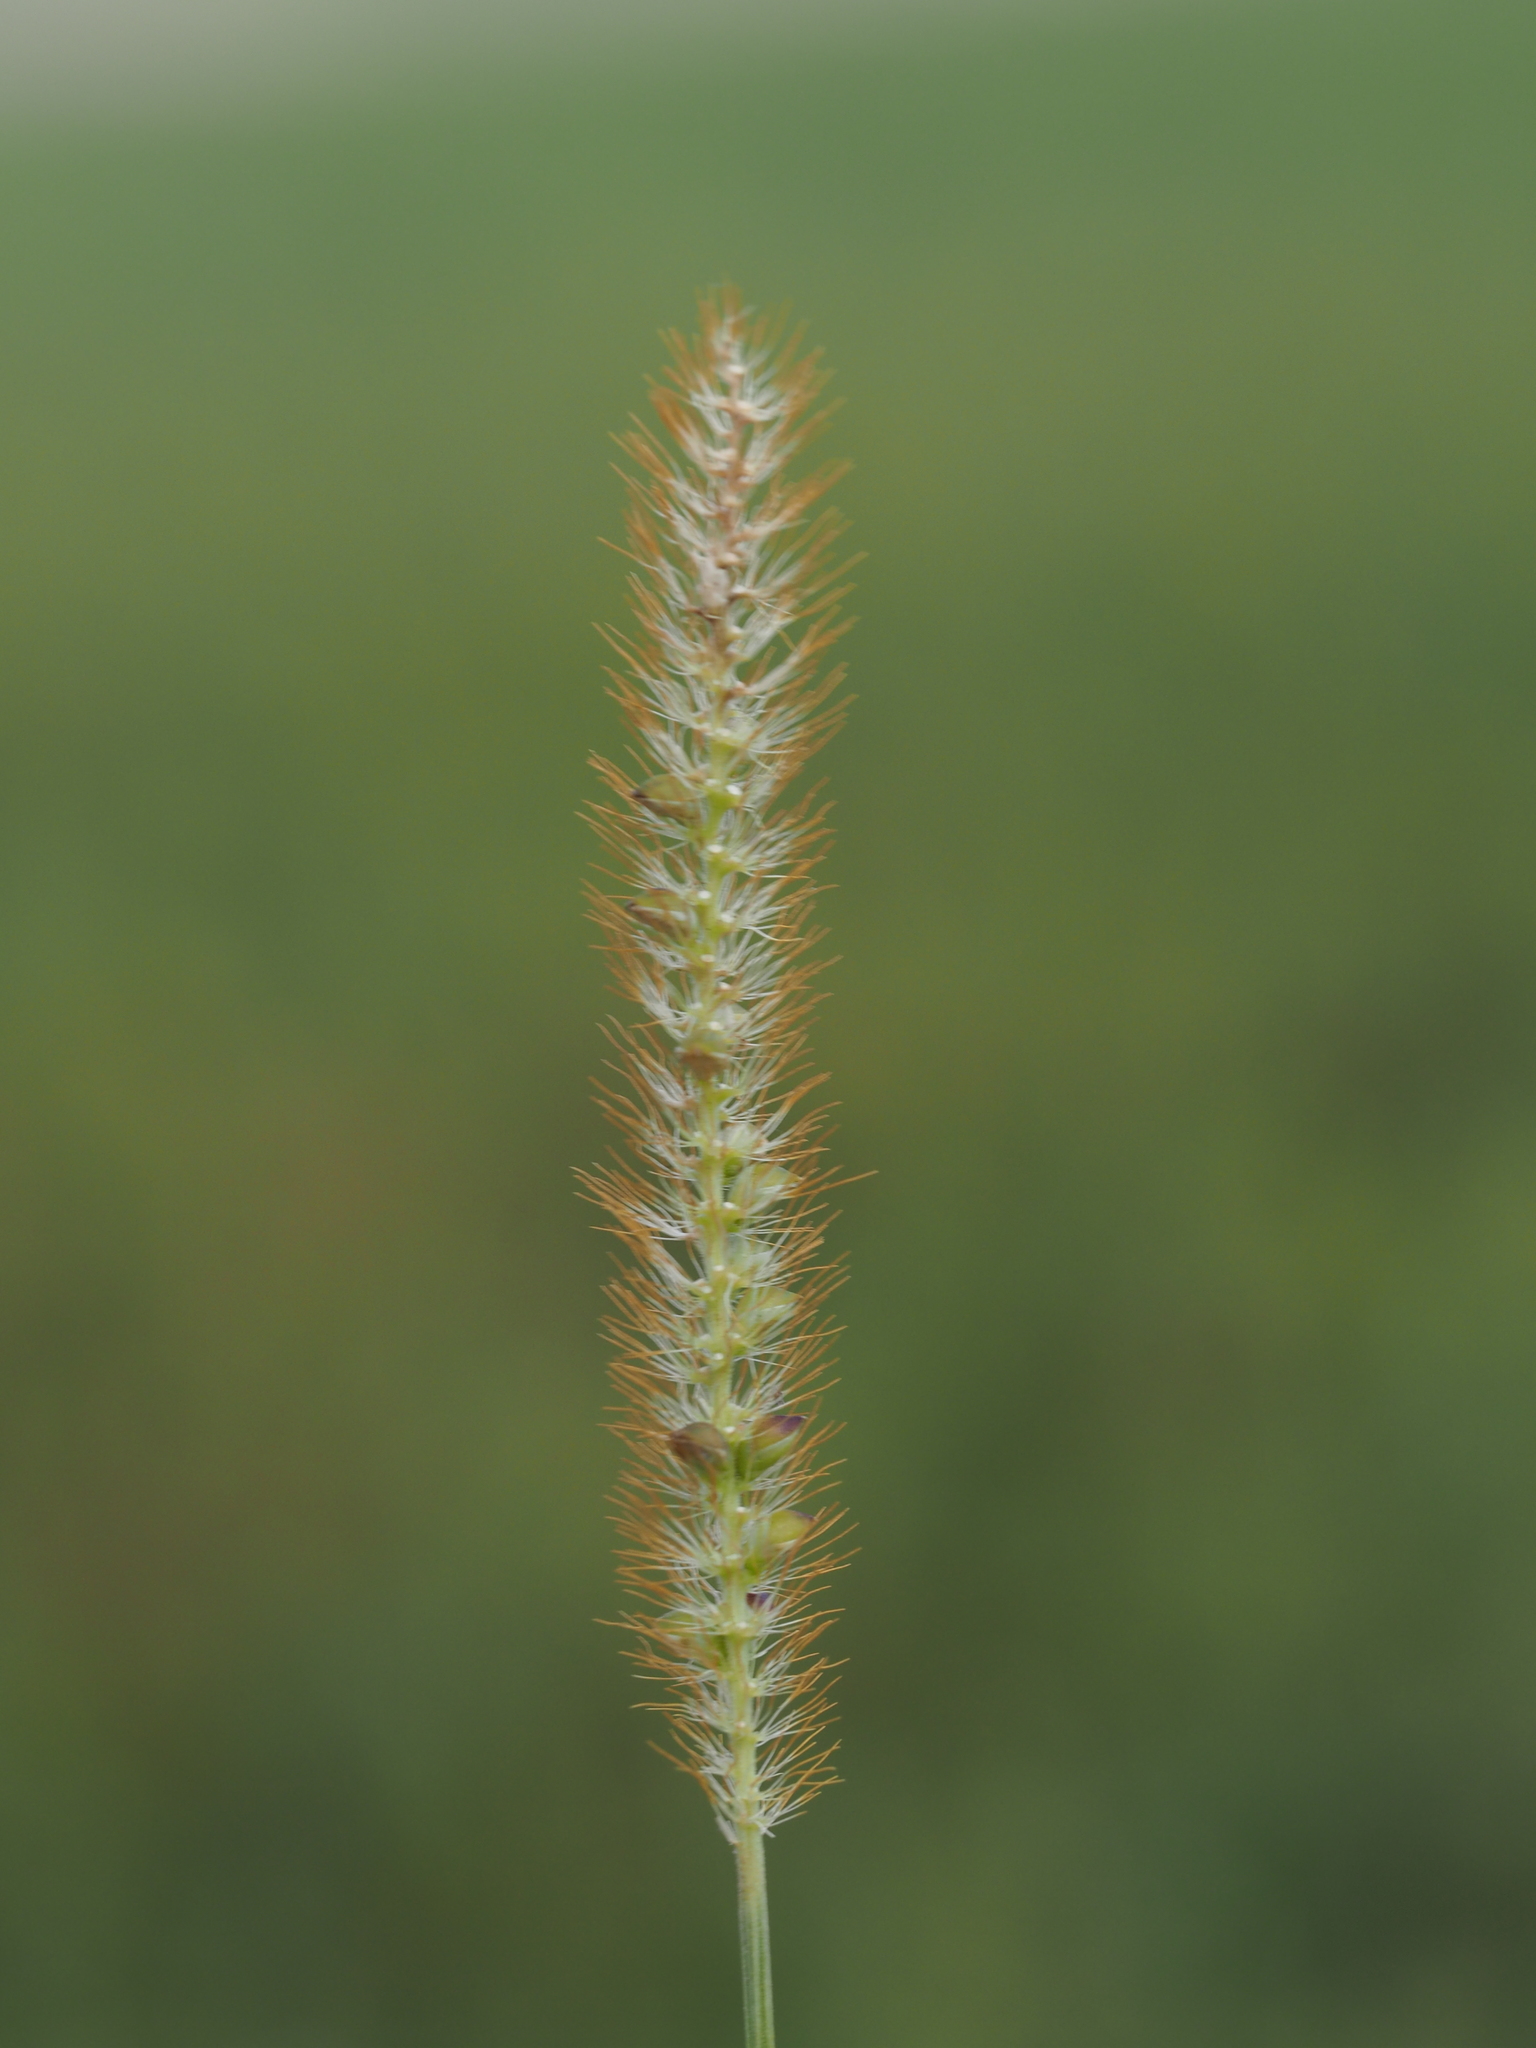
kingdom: Plantae
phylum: Tracheophyta
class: Liliopsida
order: Poales
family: Poaceae
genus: Setaria
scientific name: Setaria pumila
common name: Yellow bristle-grass
